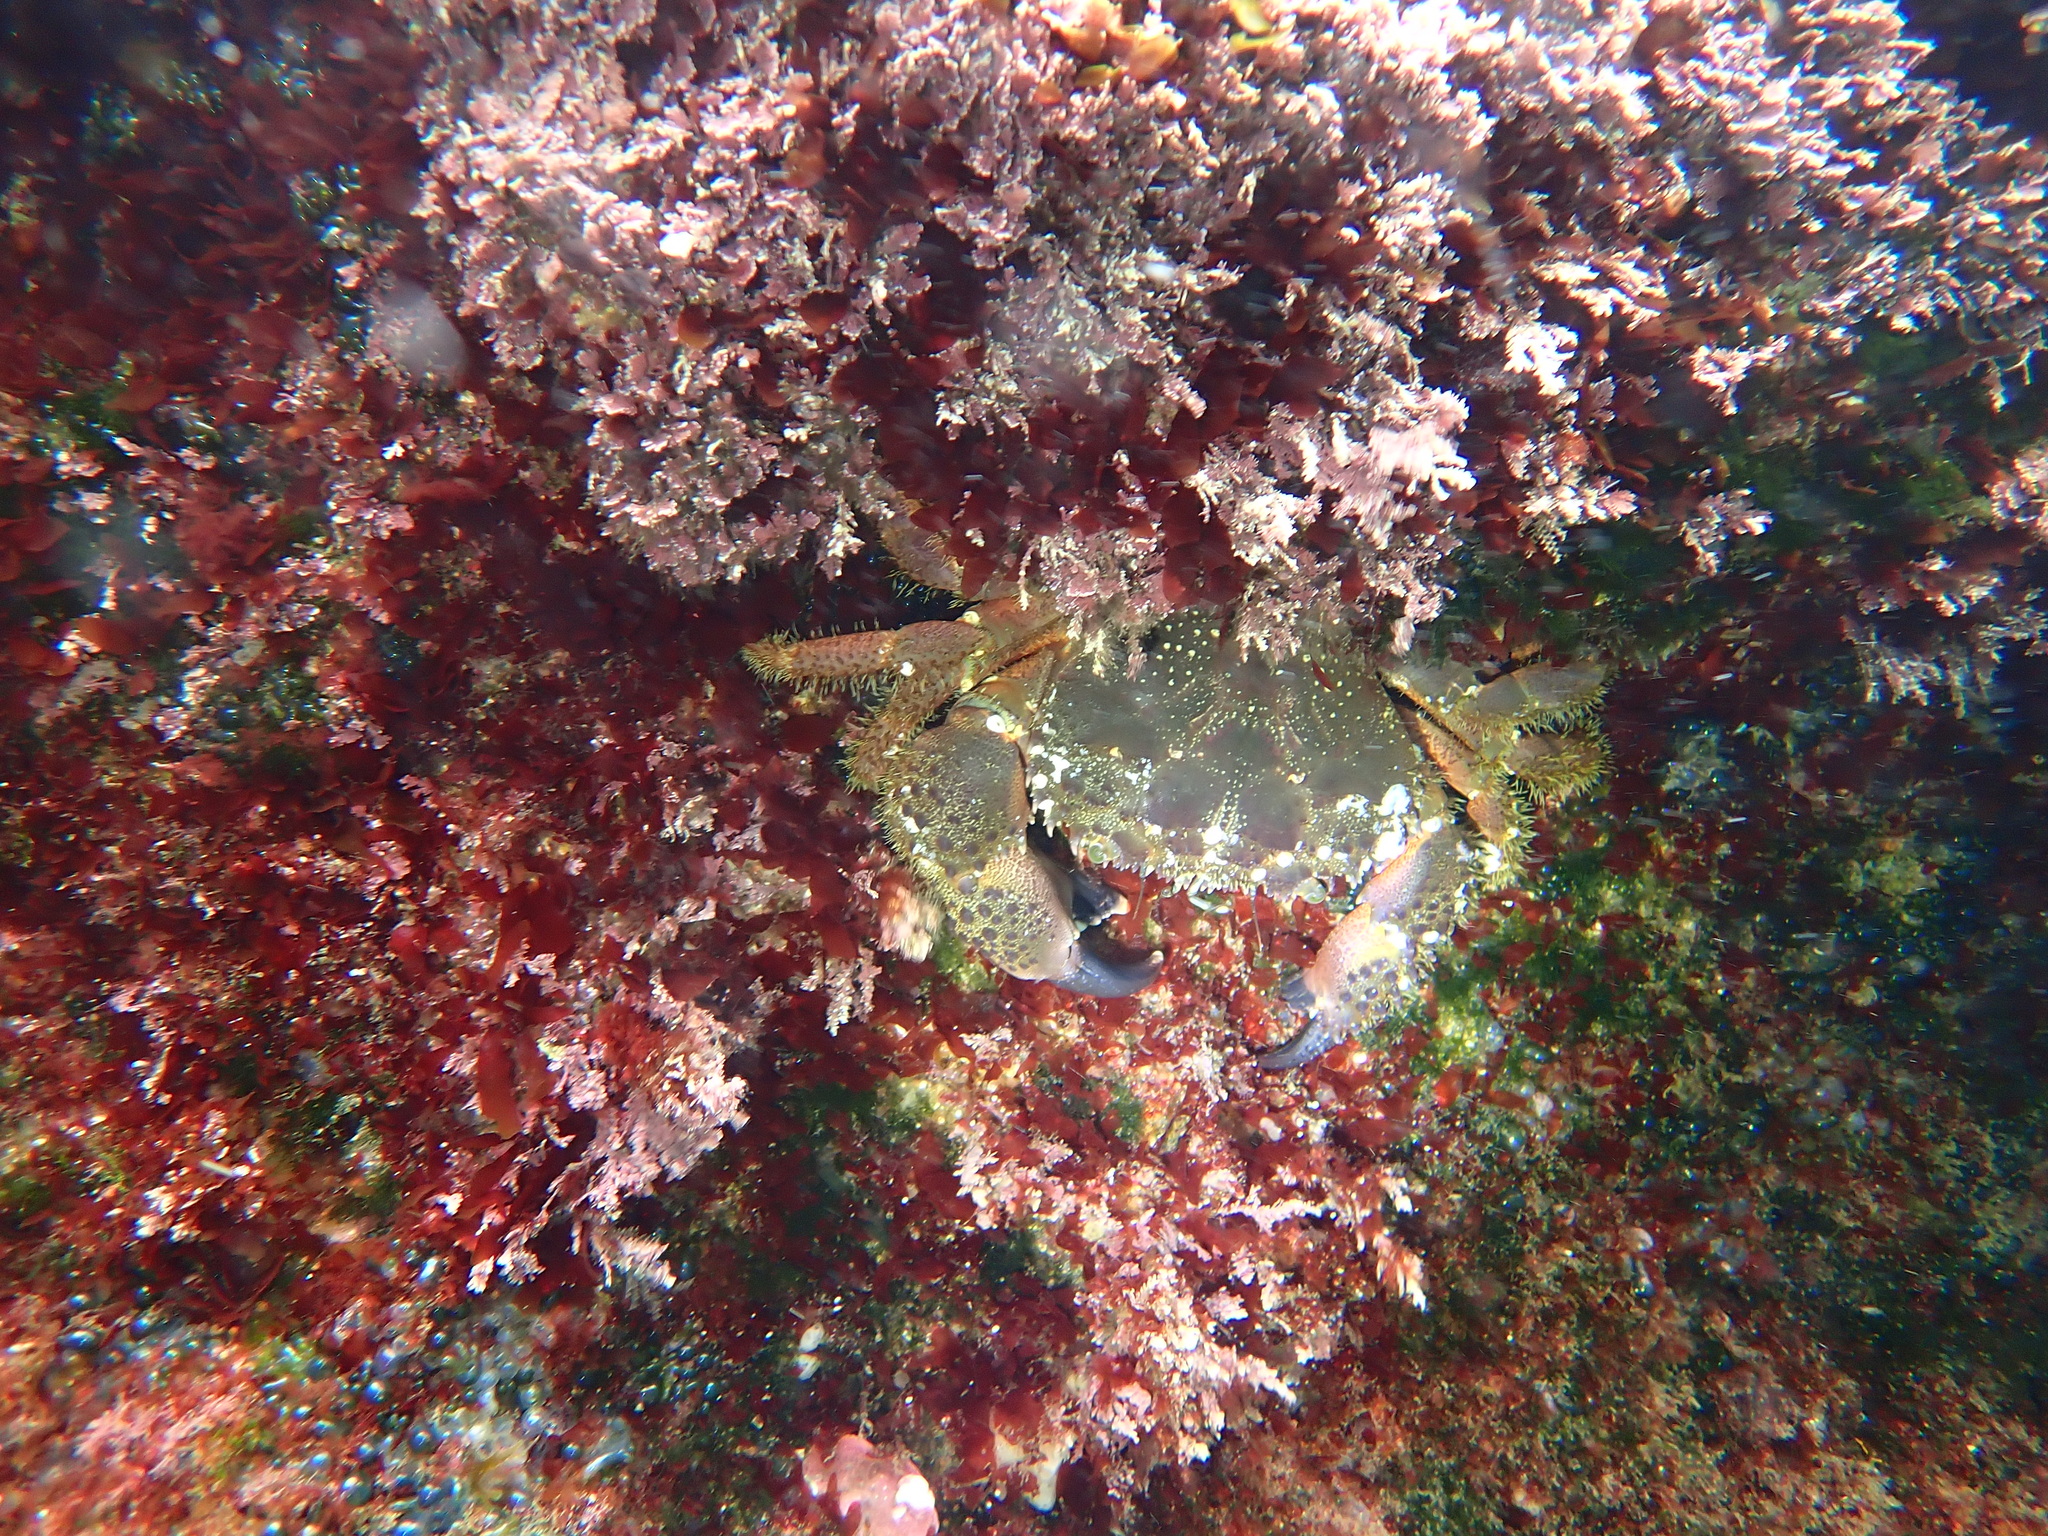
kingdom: Animalia
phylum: Arthropoda
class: Malacostraca
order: Decapoda
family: Eriphiidae
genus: Eriphia
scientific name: Eriphia verrucosa
